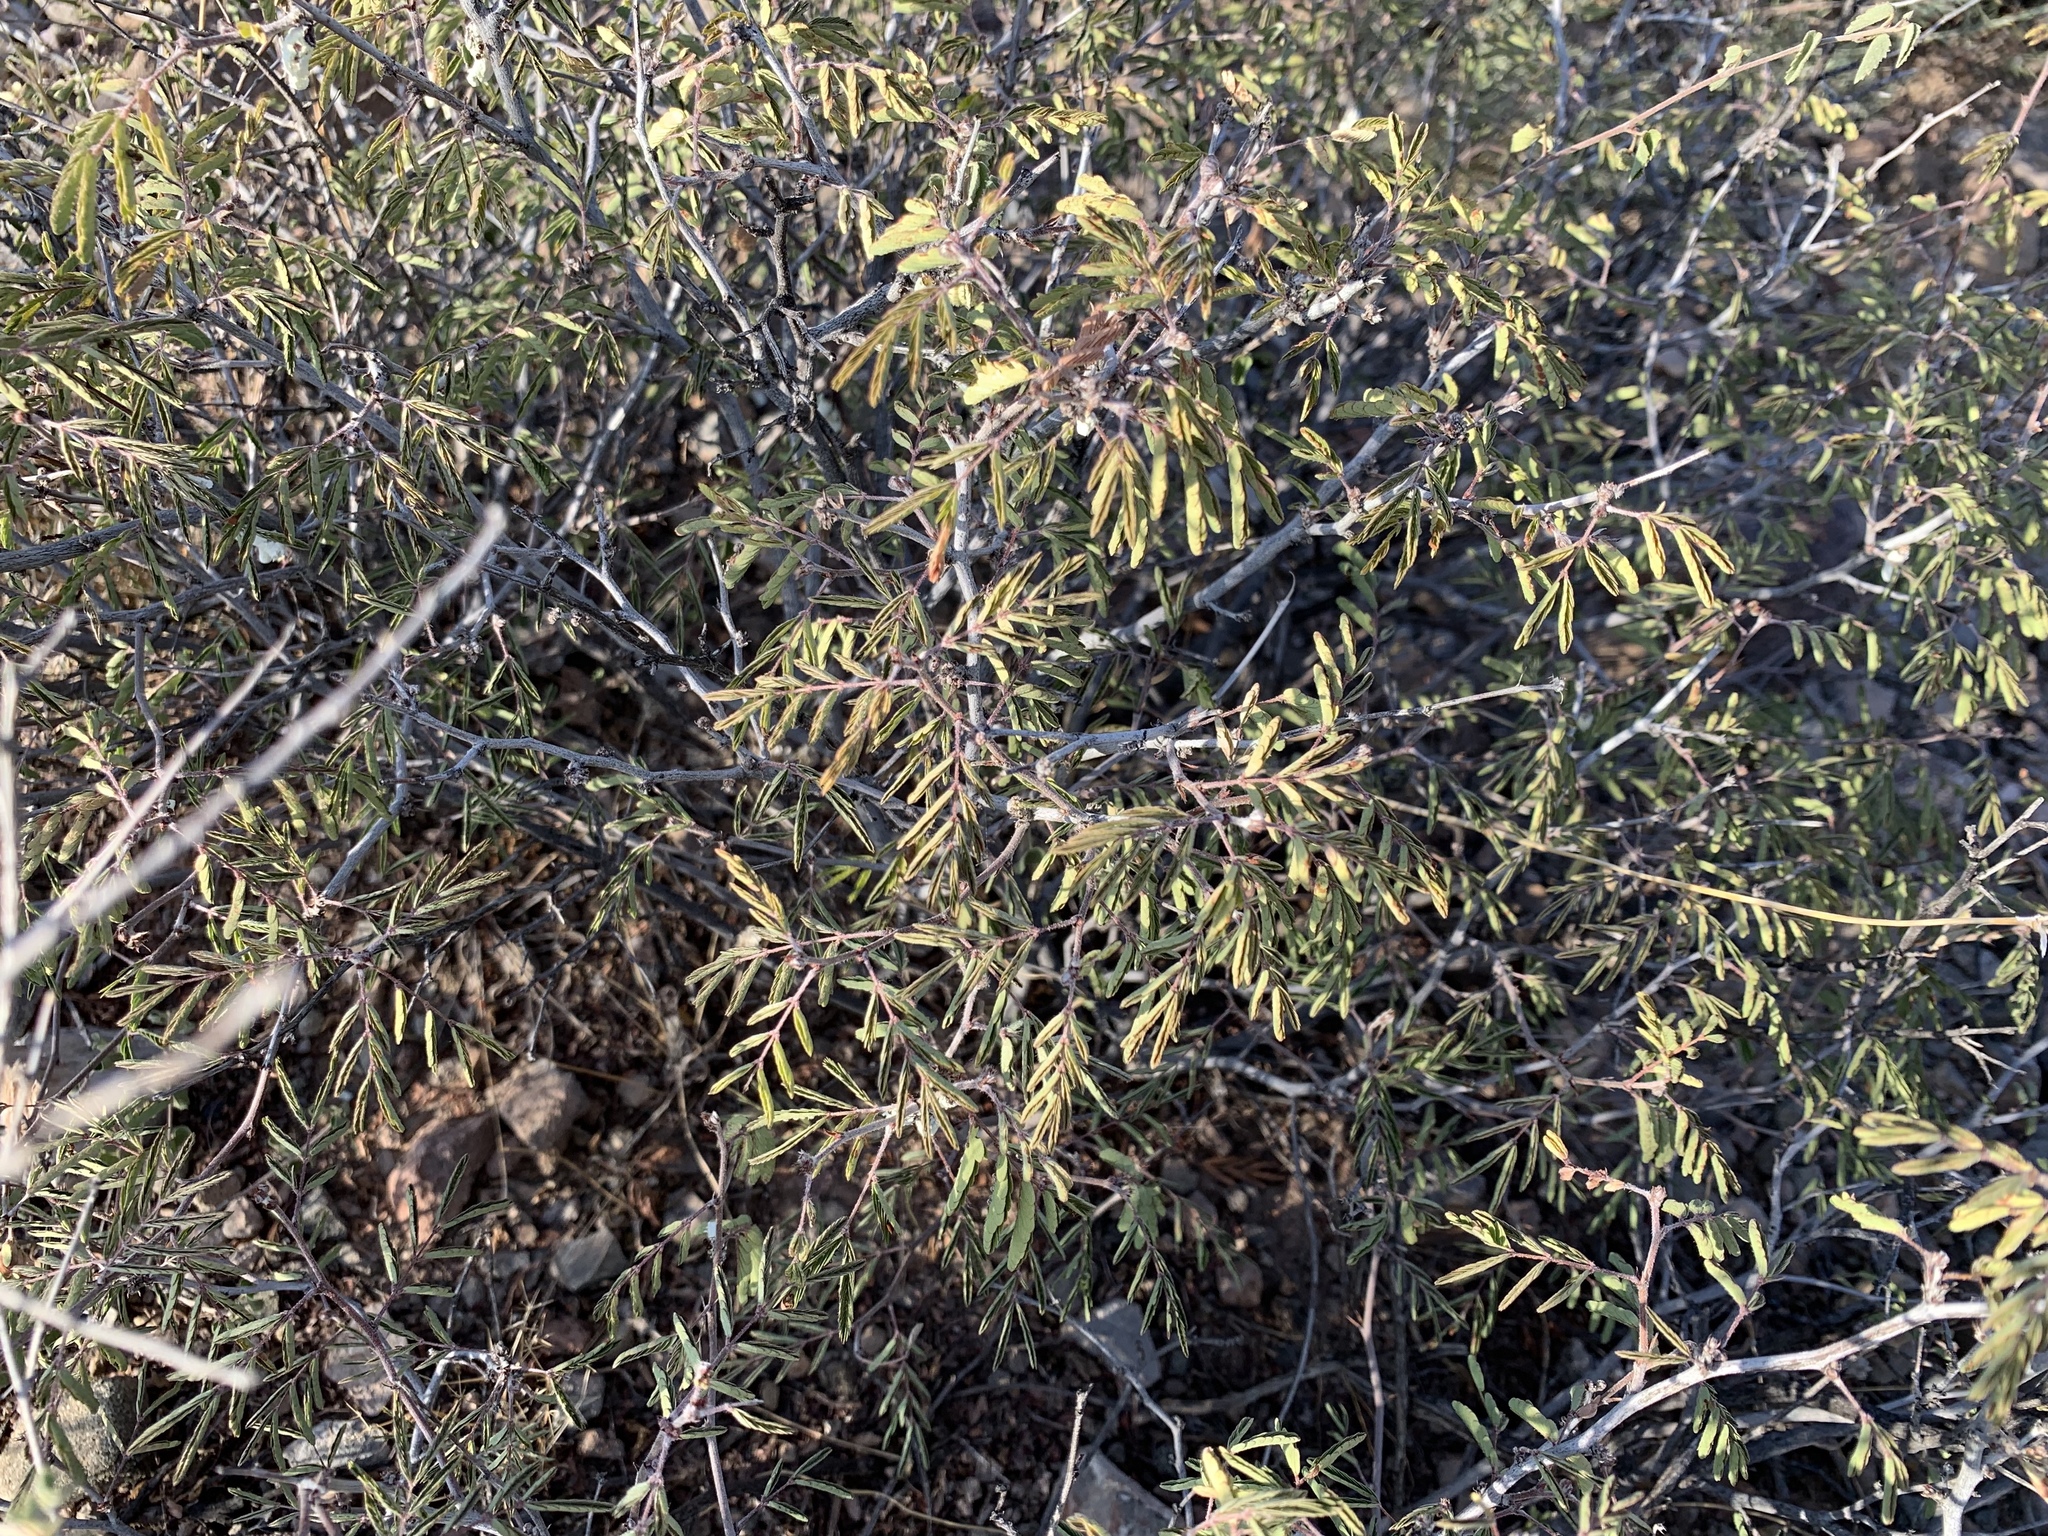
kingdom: Plantae
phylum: Tracheophyta
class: Magnoliopsida
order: Fabales
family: Fabaceae
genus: Calliandra
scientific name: Calliandra eriophylla
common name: Fairy-duster
